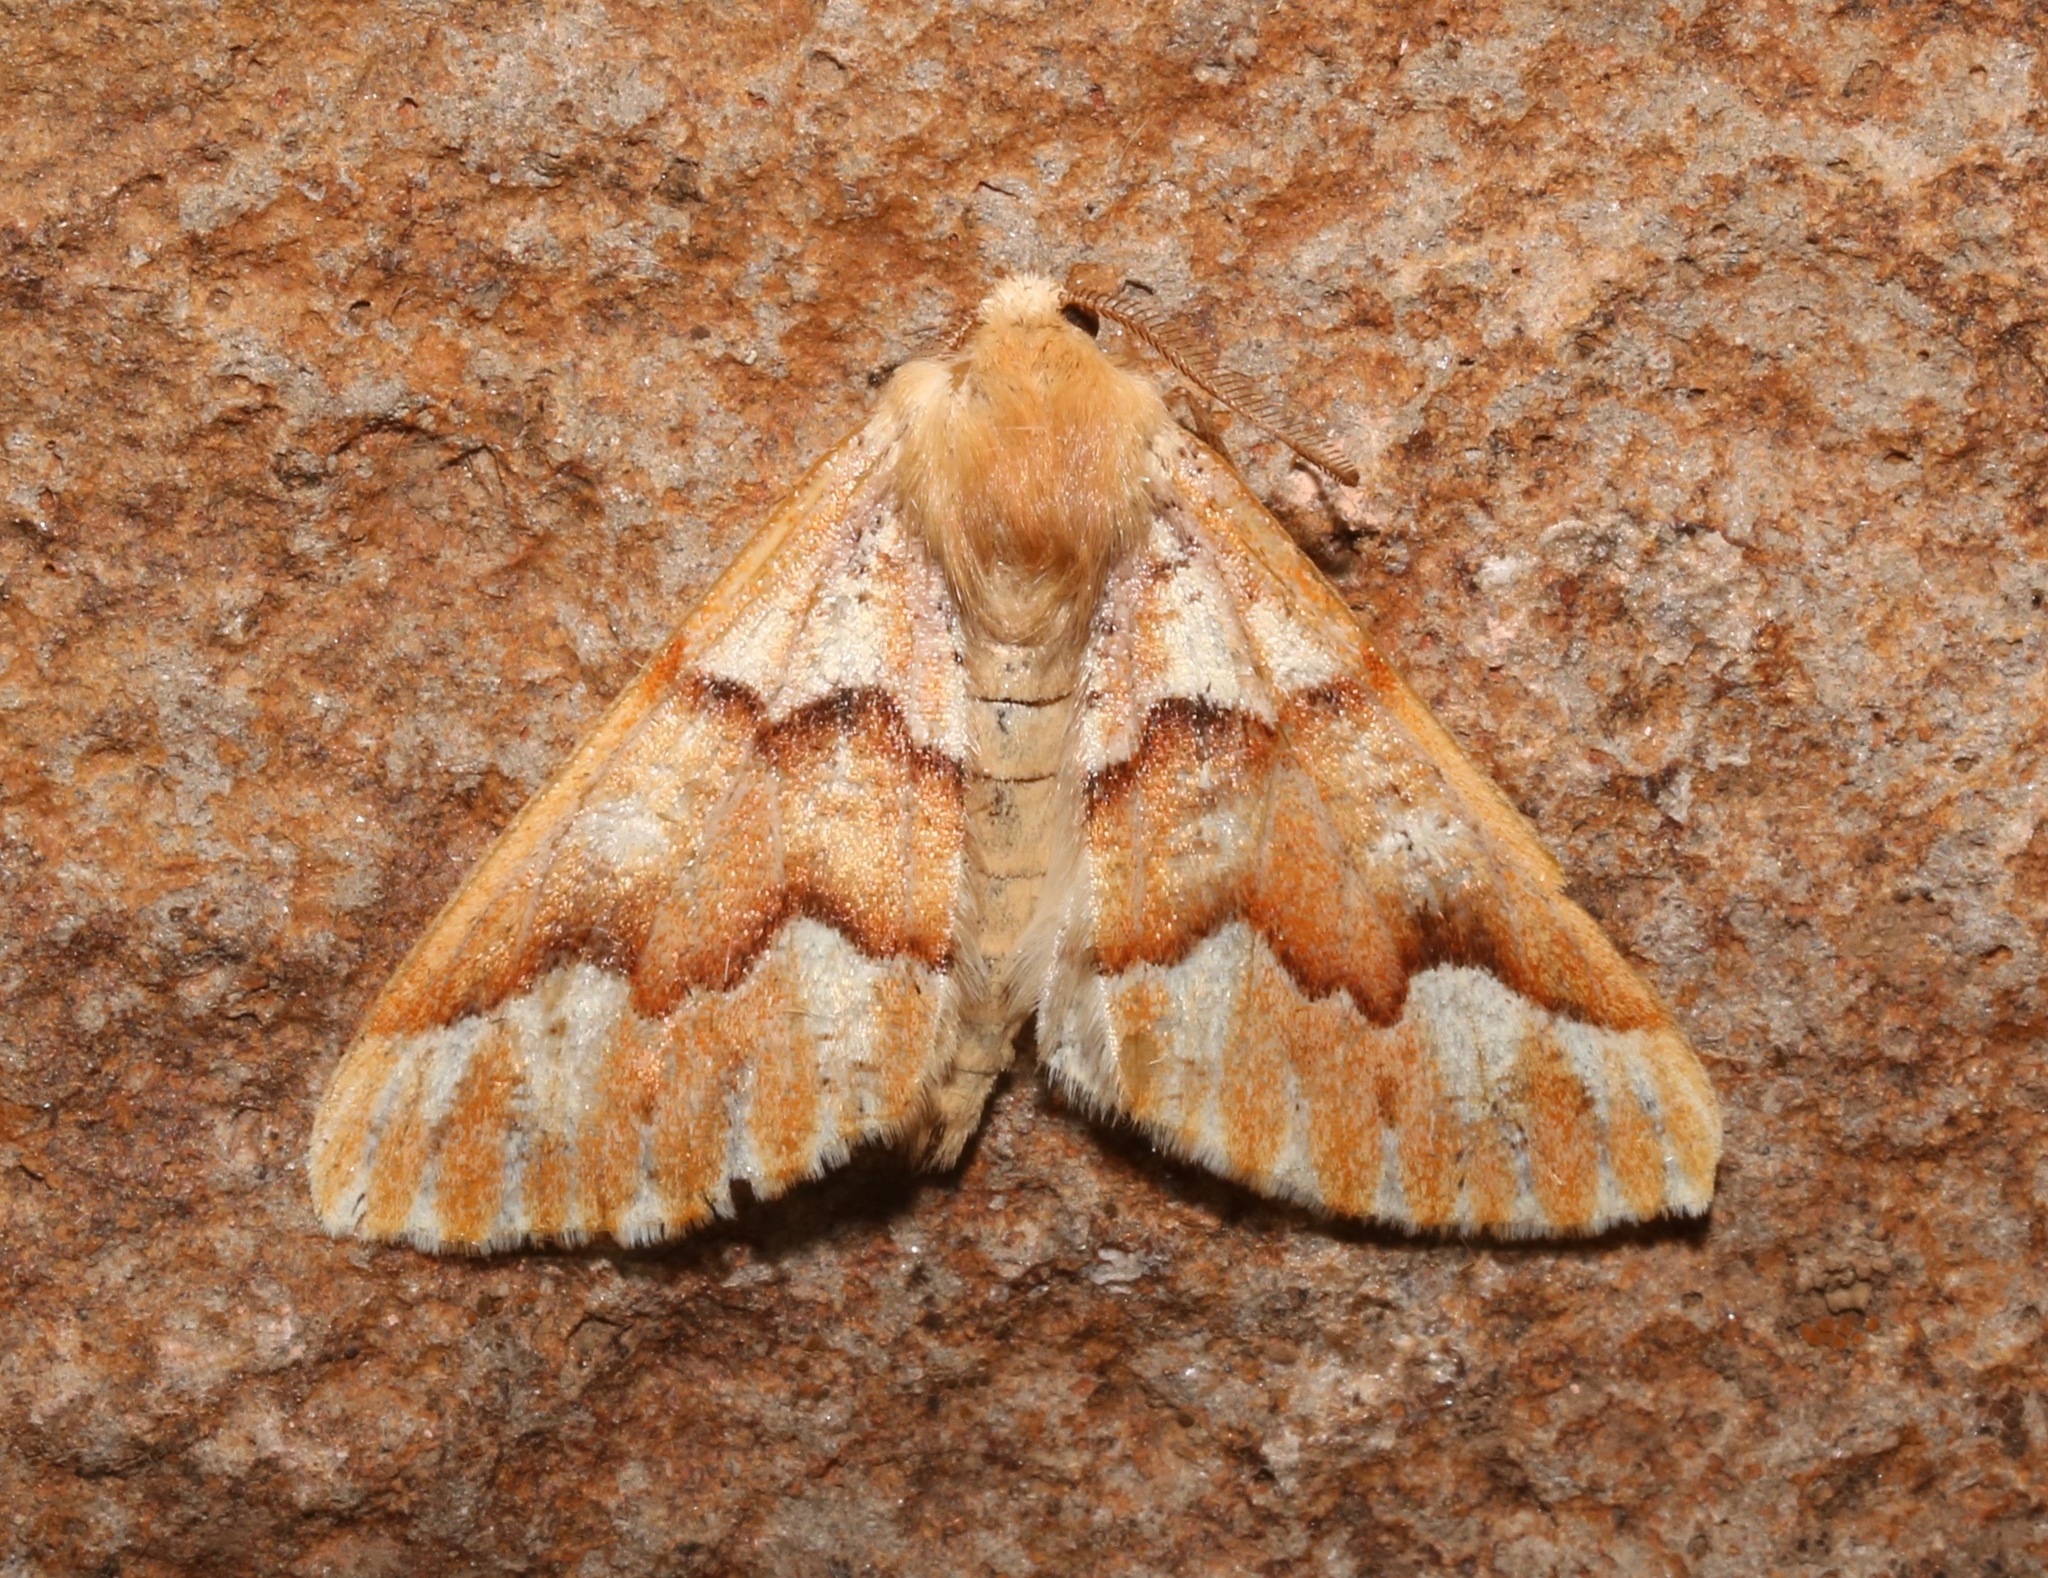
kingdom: Animalia
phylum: Arthropoda
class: Insecta
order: Lepidoptera
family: Geometridae
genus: Caripeta
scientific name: Caripeta aequaliaria
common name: Red girdle moth
